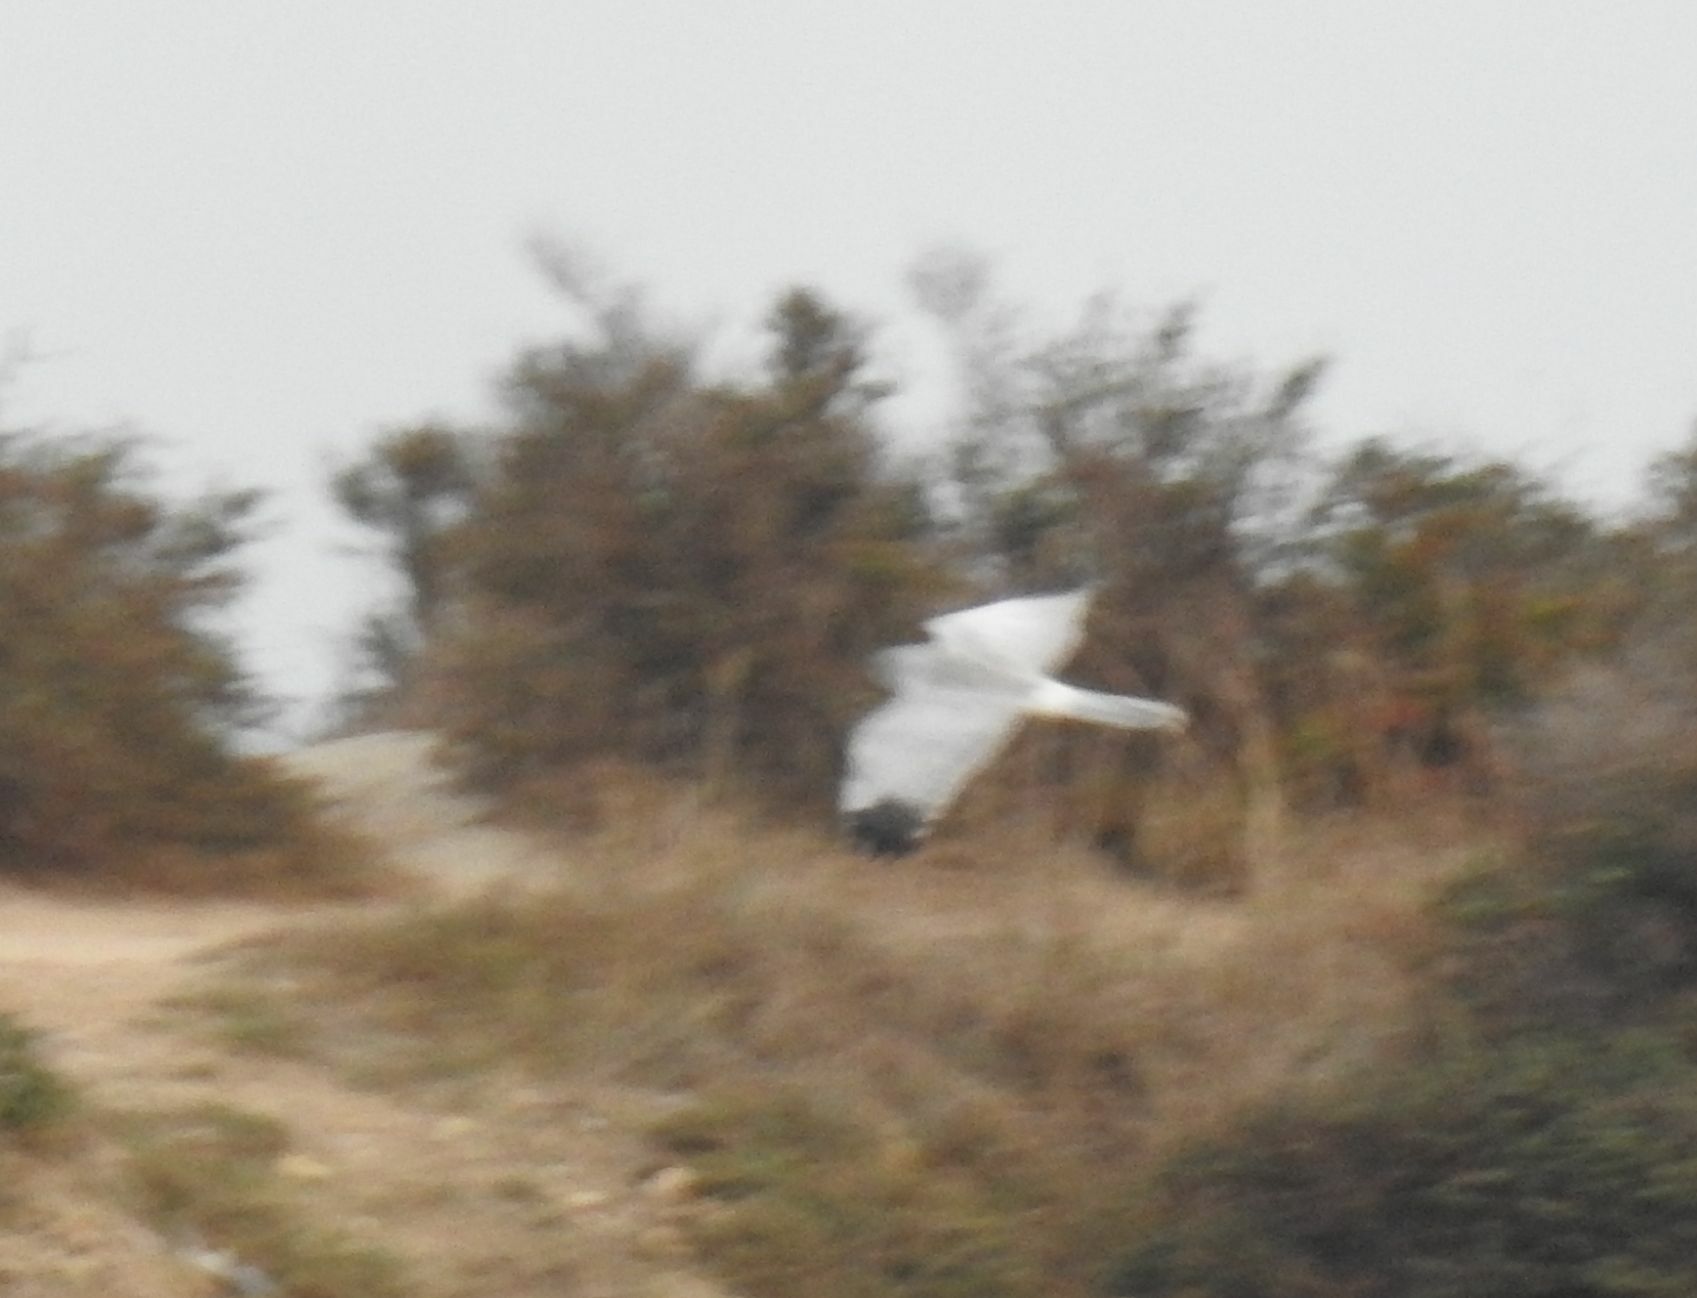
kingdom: Animalia
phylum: Chordata
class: Aves
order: Accipitriformes
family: Accipitridae
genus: Circus
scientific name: Circus cyaneus
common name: Hen harrier
